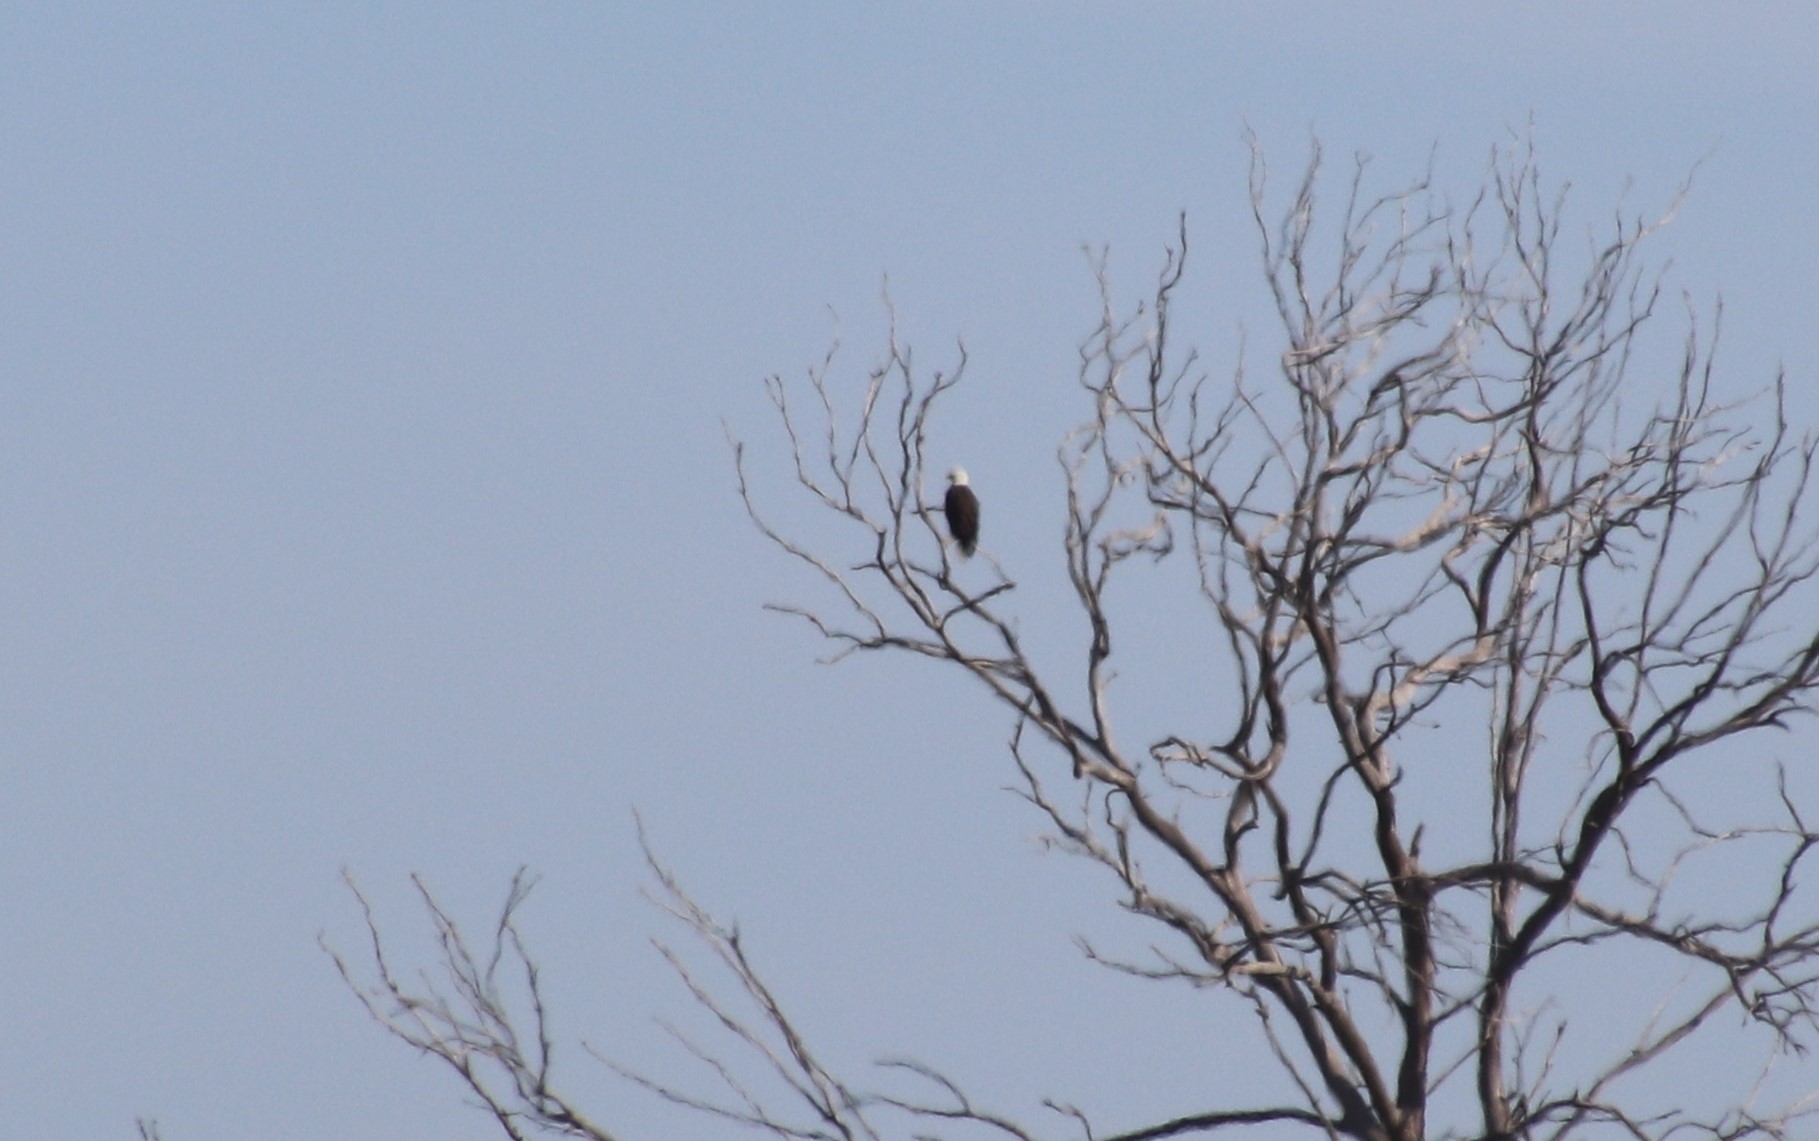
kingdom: Animalia
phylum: Chordata
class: Aves
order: Accipitriformes
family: Accipitridae
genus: Haliaeetus
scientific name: Haliaeetus leucocephalus
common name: Bald eagle
